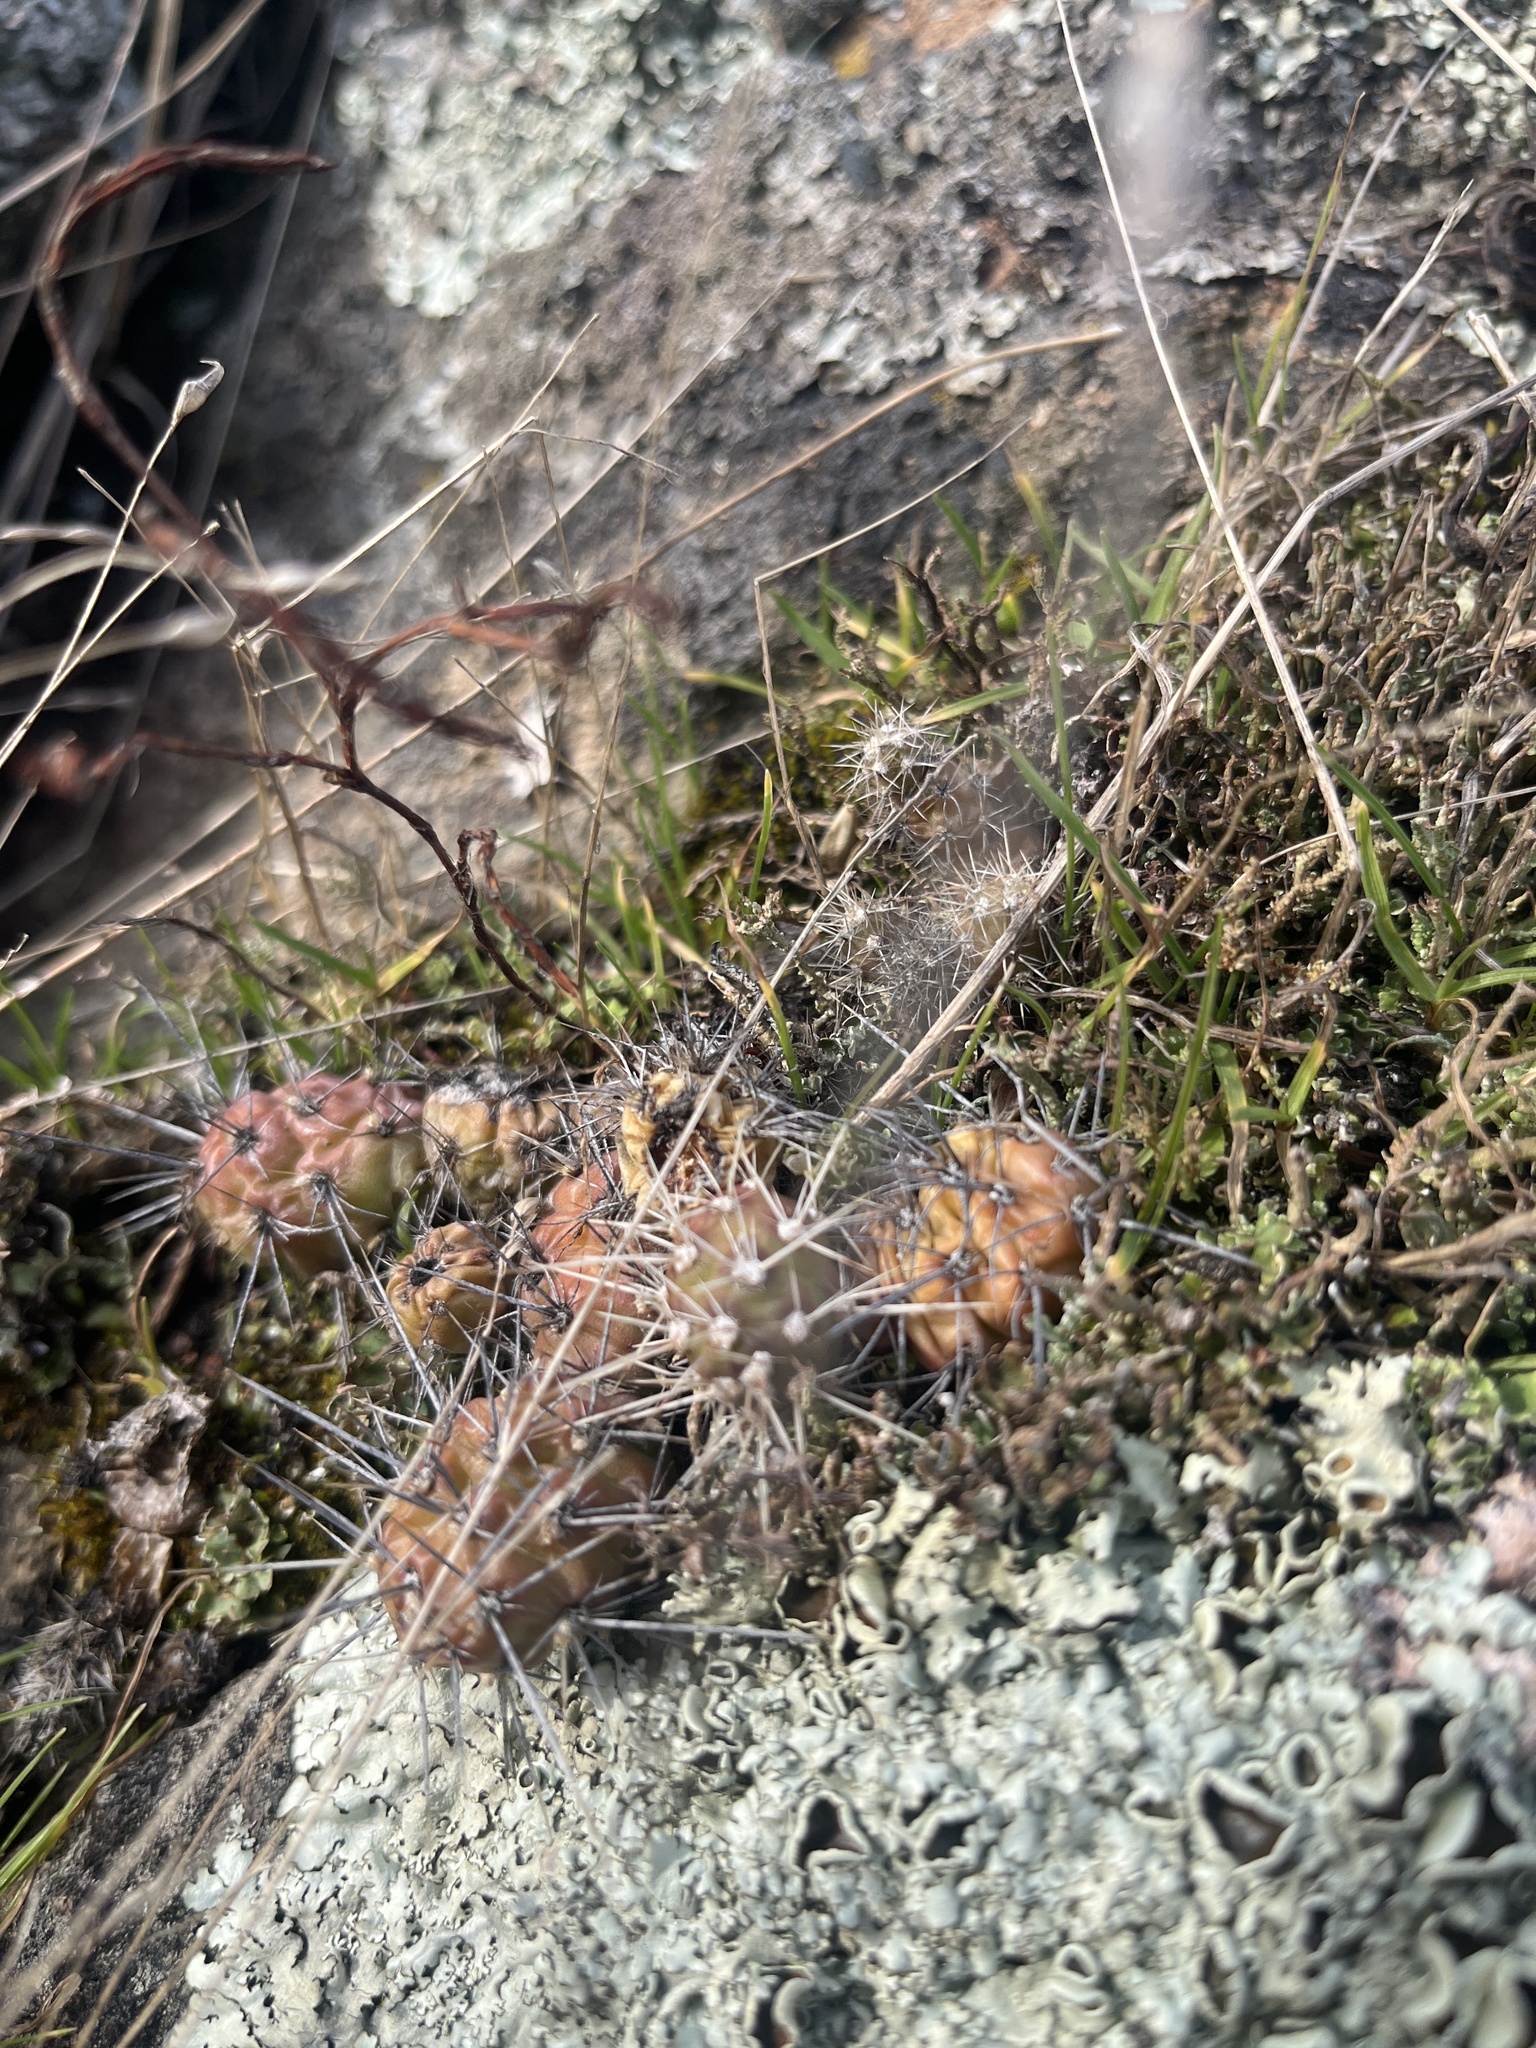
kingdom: Plantae
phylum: Tracheophyta
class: Magnoliopsida
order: Caryophyllales
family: Cactaceae
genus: Opuntia
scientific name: Opuntia fragilis
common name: Brittle cactus
